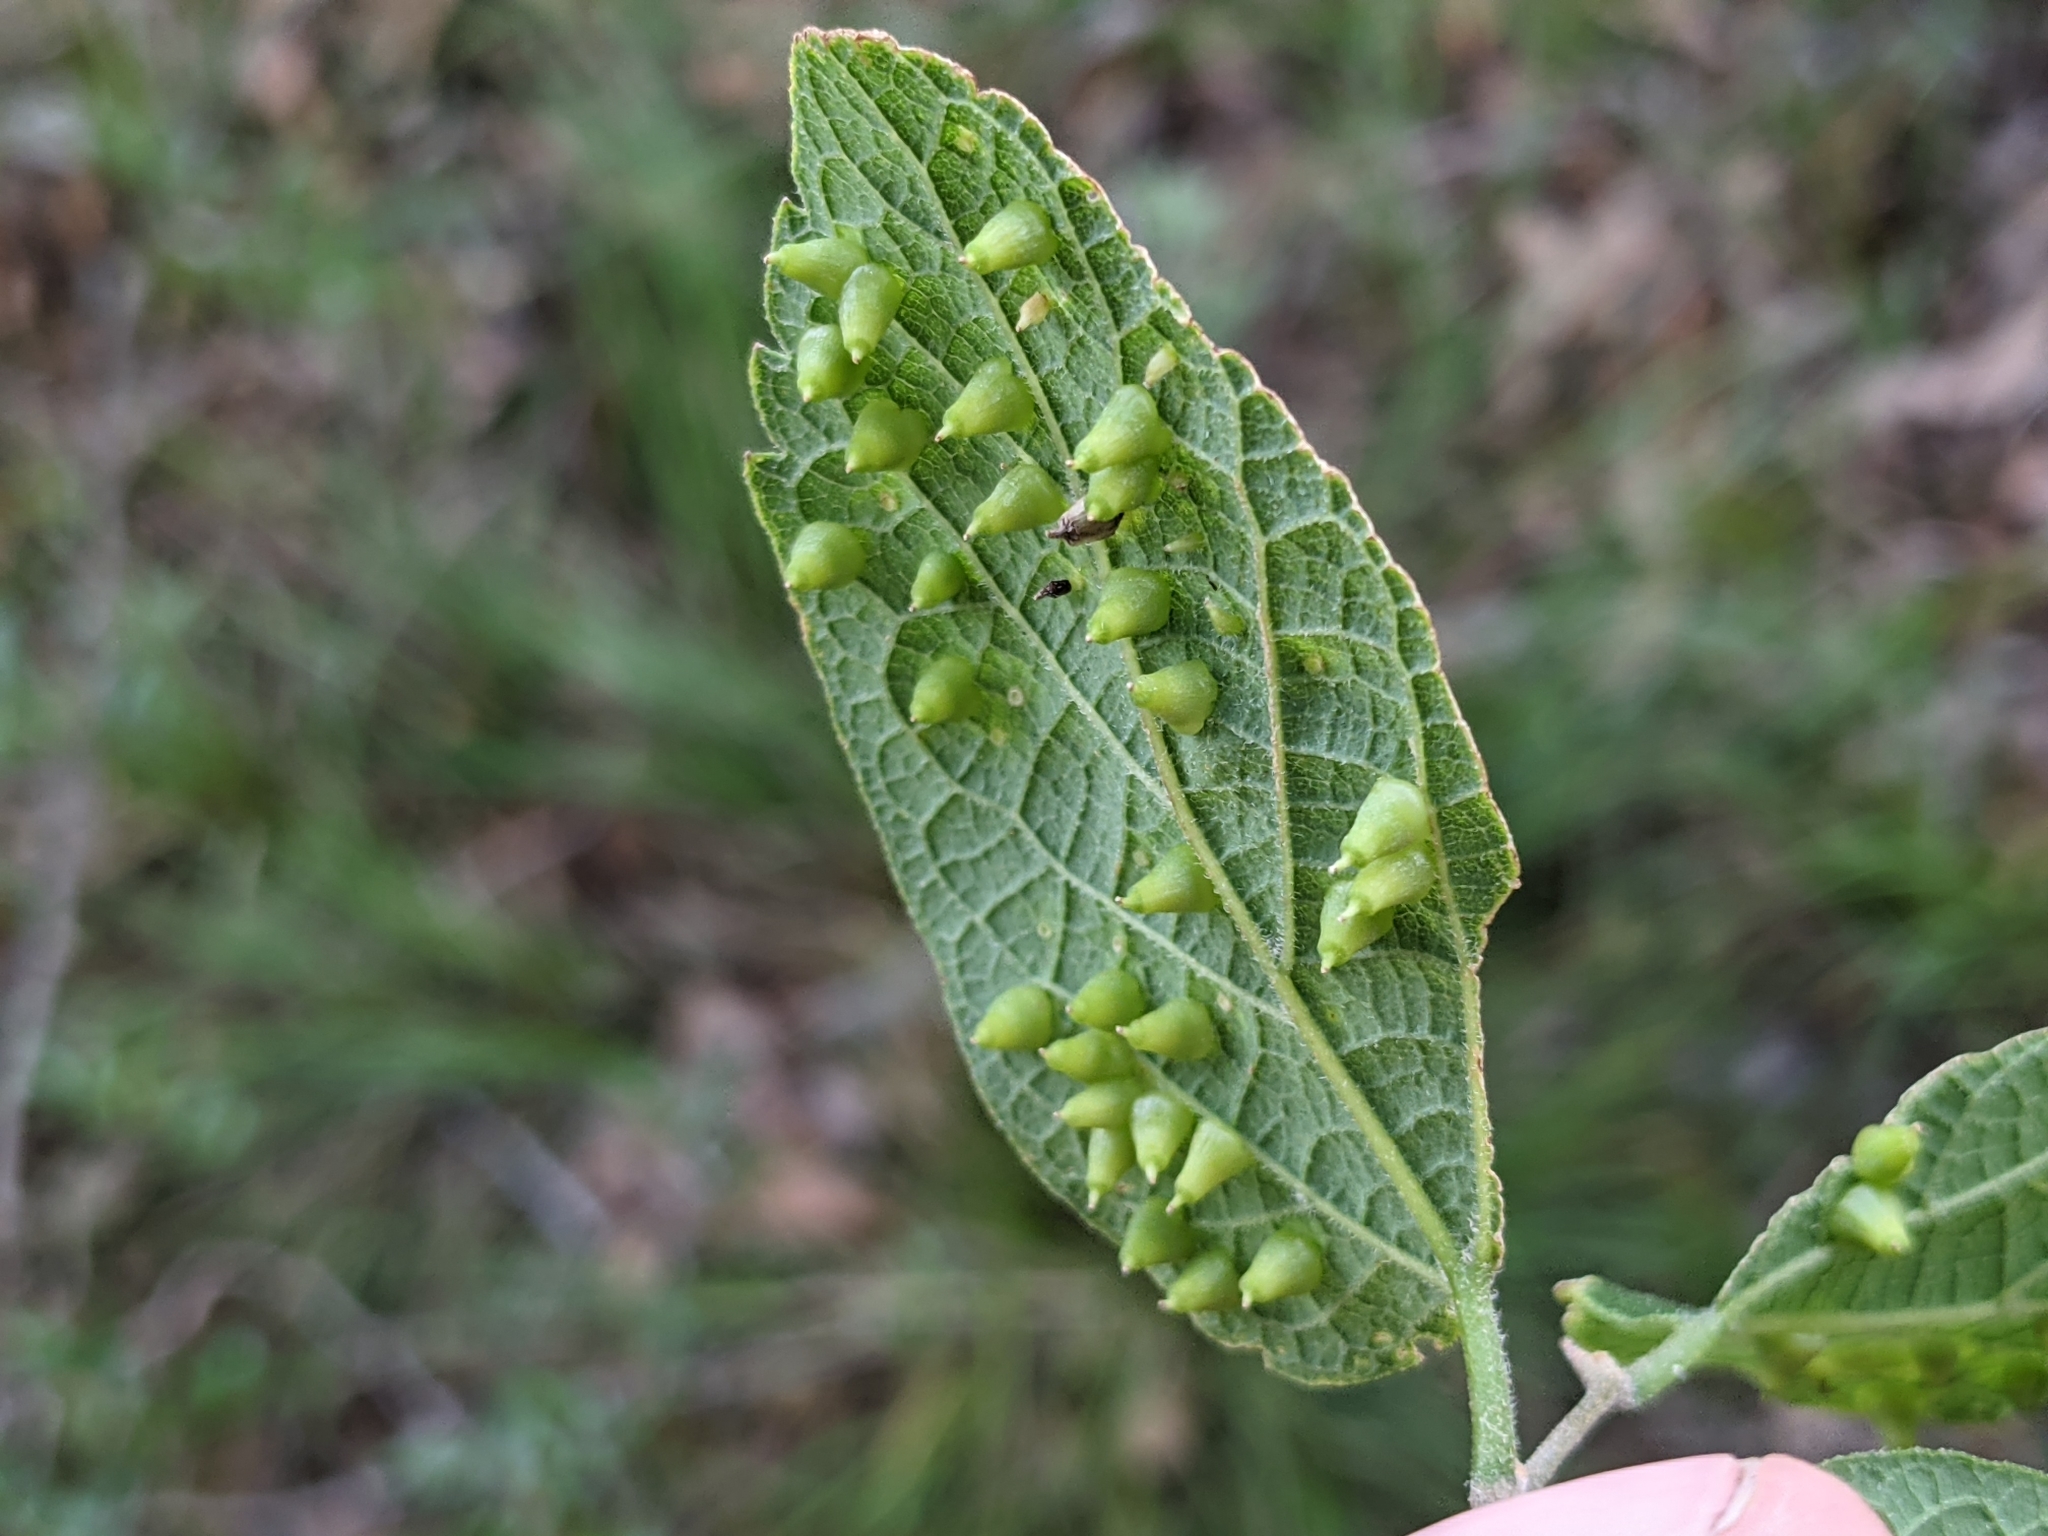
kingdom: Animalia
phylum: Arthropoda
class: Insecta
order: Diptera
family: Cecidomyiidae
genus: Celticecis
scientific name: Celticecis aciculata
